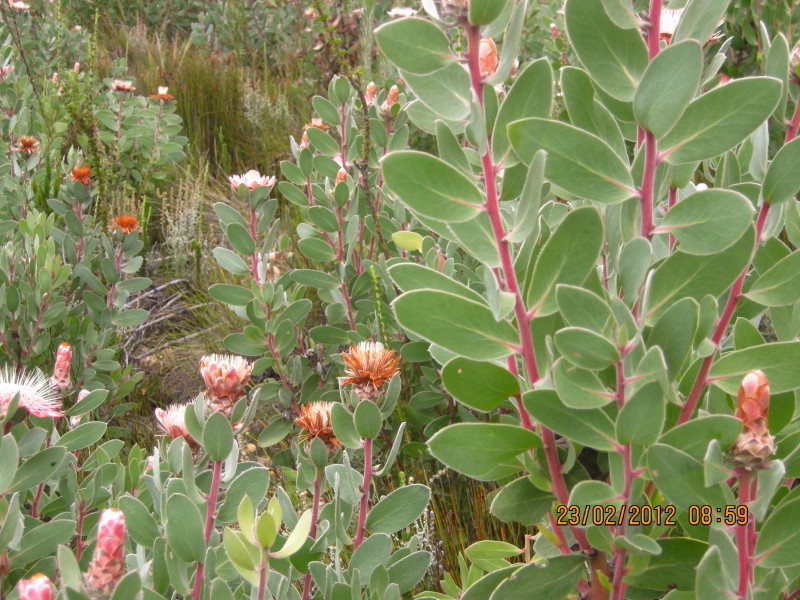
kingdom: Plantae
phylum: Tracheophyta
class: Magnoliopsida
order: Proteales
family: Proteaceae
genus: Protea
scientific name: Protea punctata
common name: Water sugarbush
